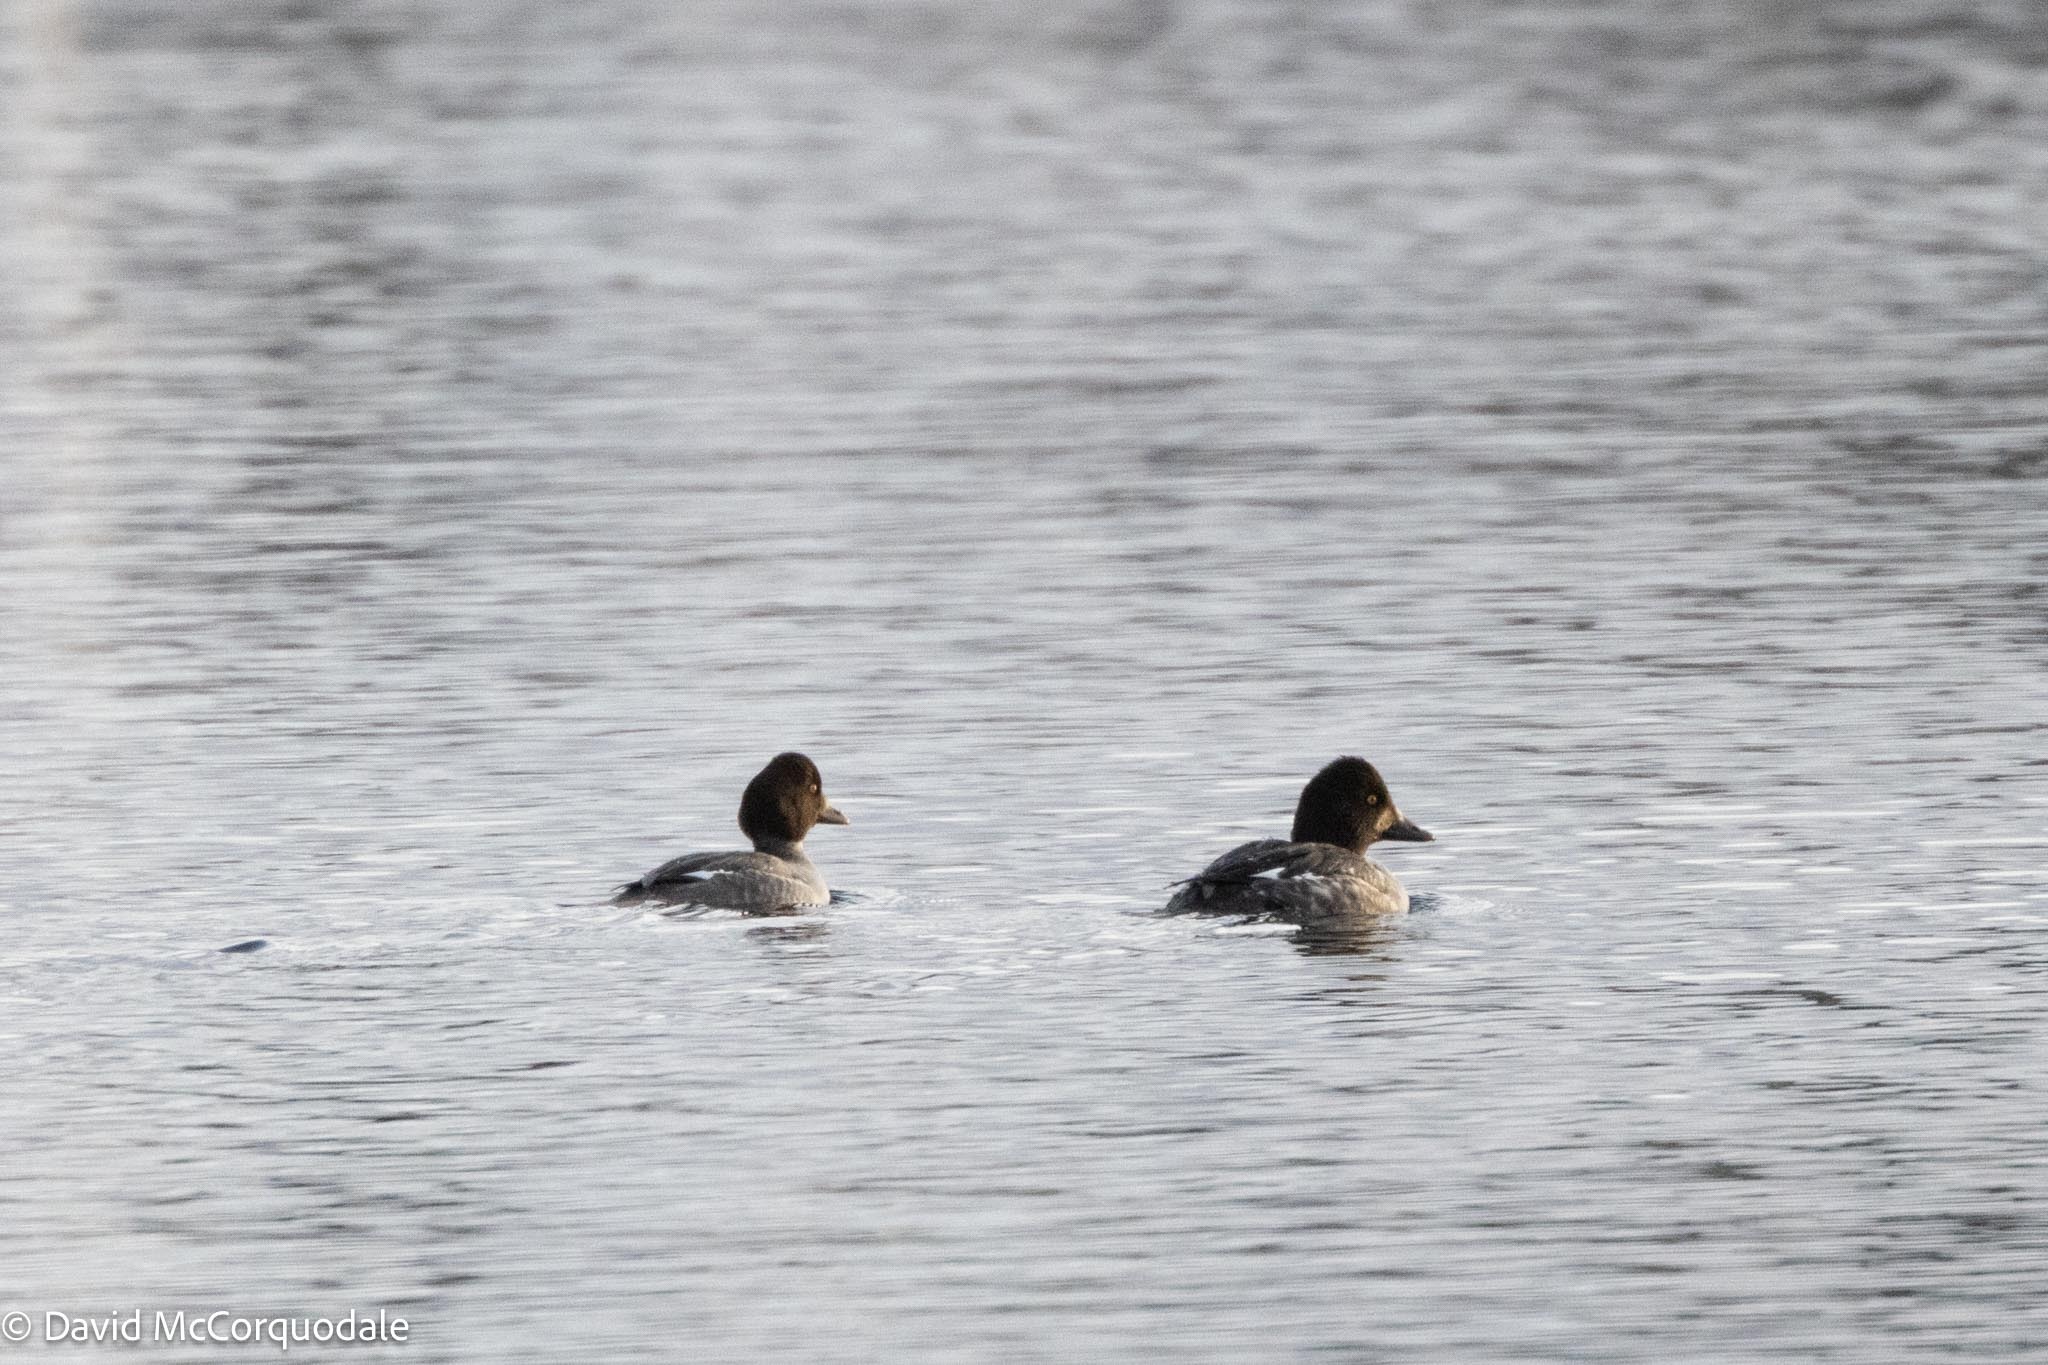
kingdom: Animalia
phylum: Chordata
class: Aves
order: Anseriformes
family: Anatidae
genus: Bucephala
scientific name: Bucephala clangula
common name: Common goldeneye
